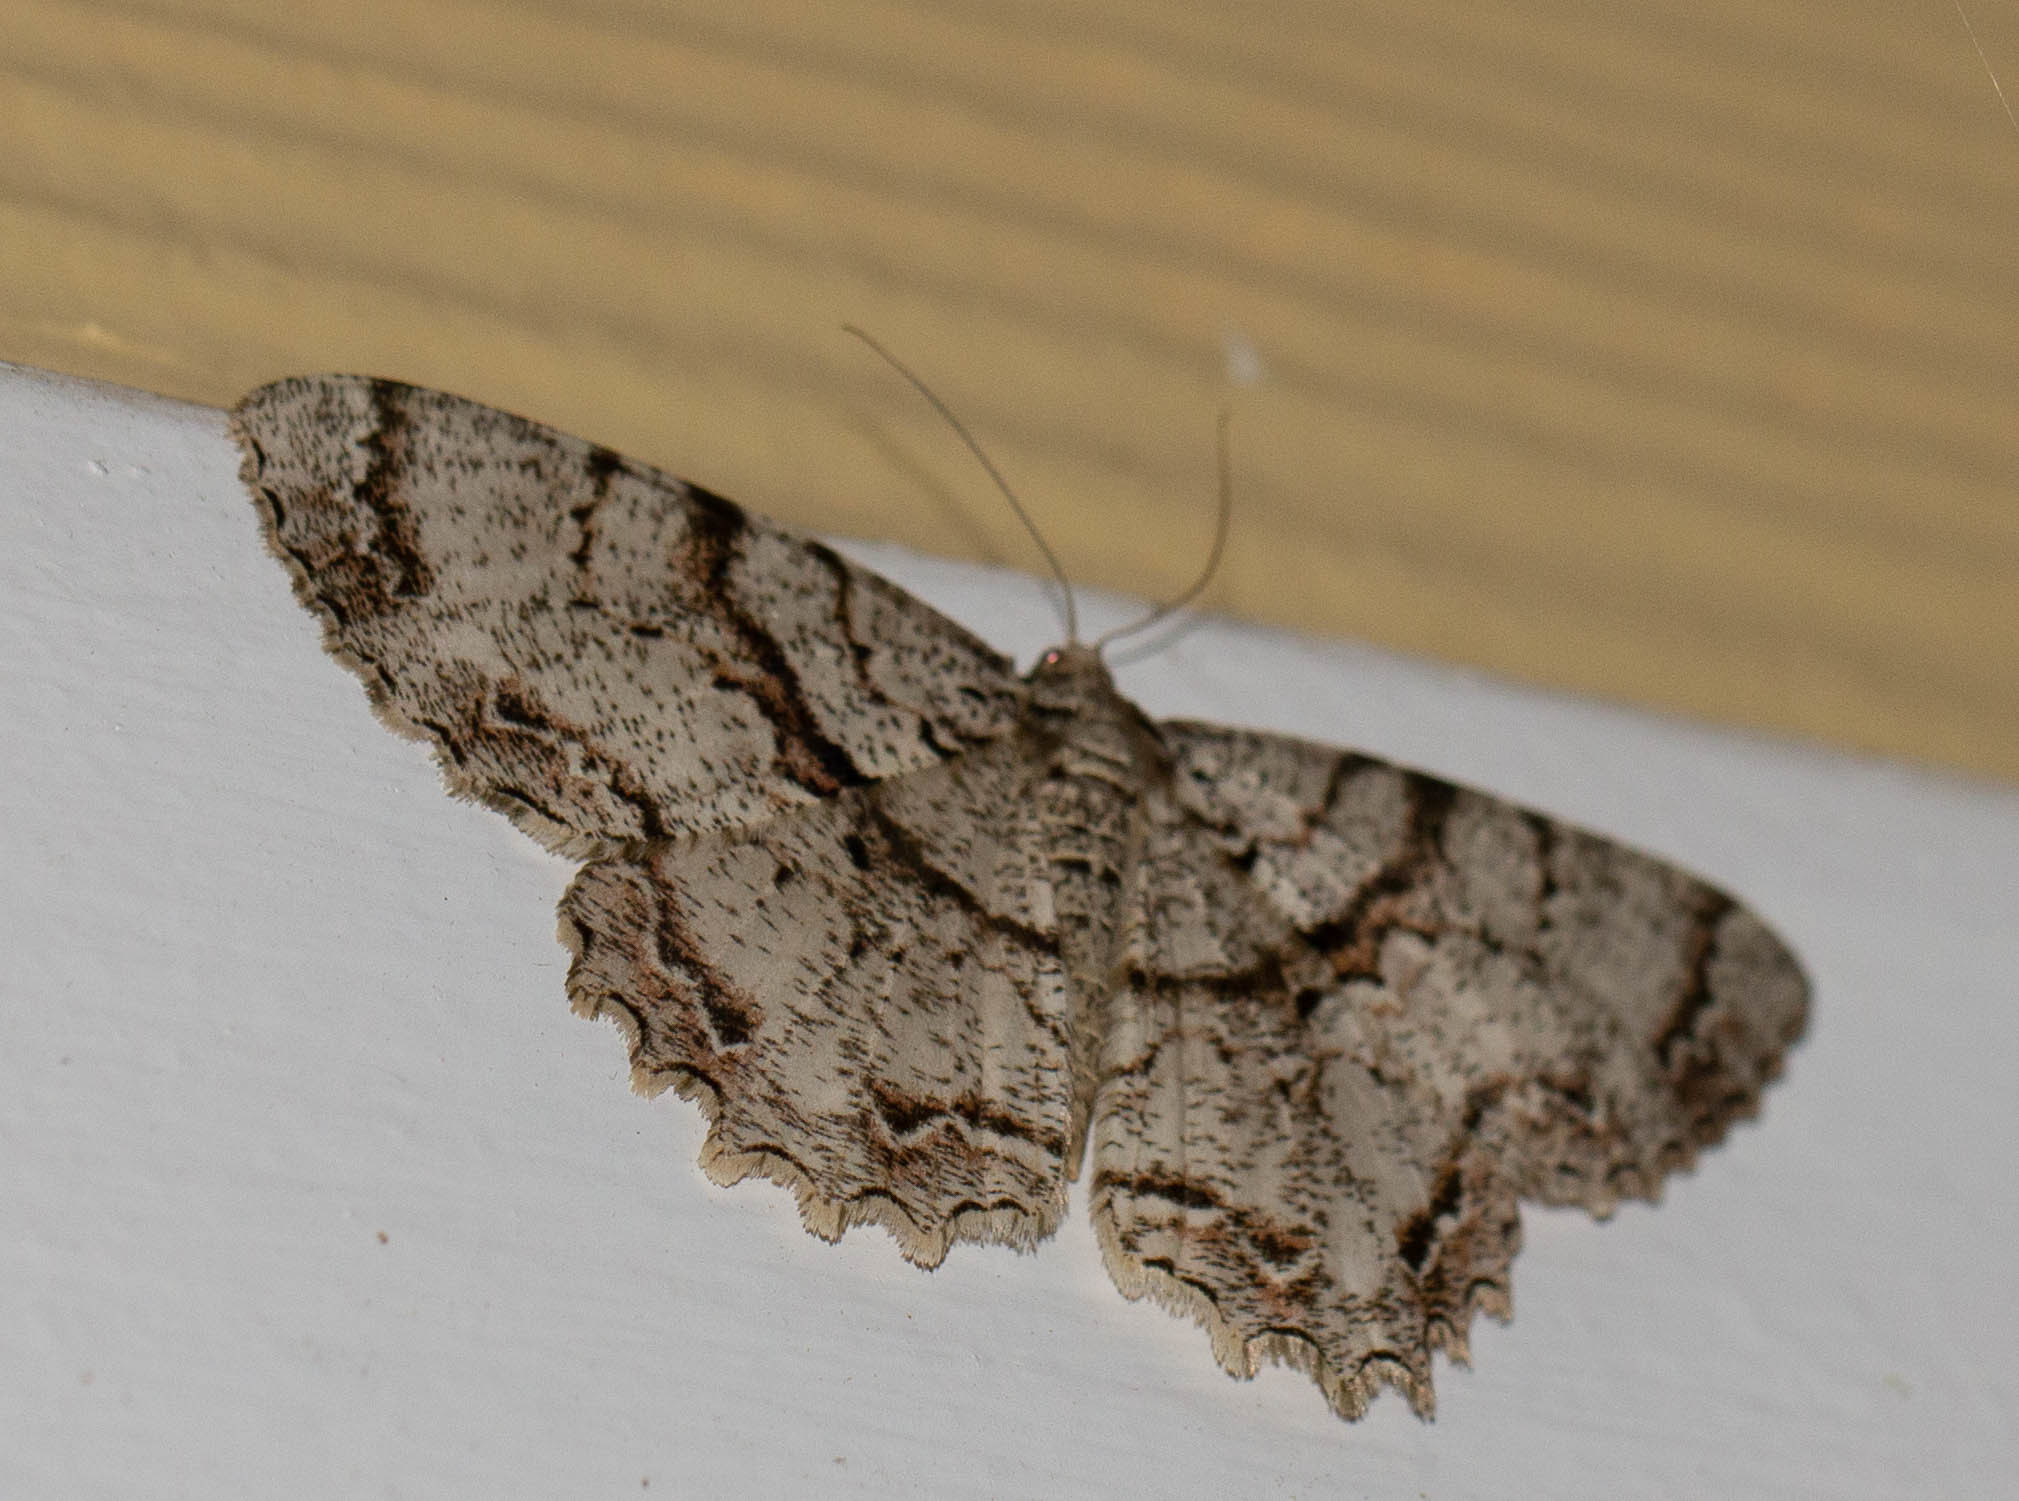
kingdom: Animalia
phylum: Arthropoda
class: Insecta
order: Lepidoptera
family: Geometridae
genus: Epimecis
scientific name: Epimecis hortaria
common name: Tulip-tree beauty
